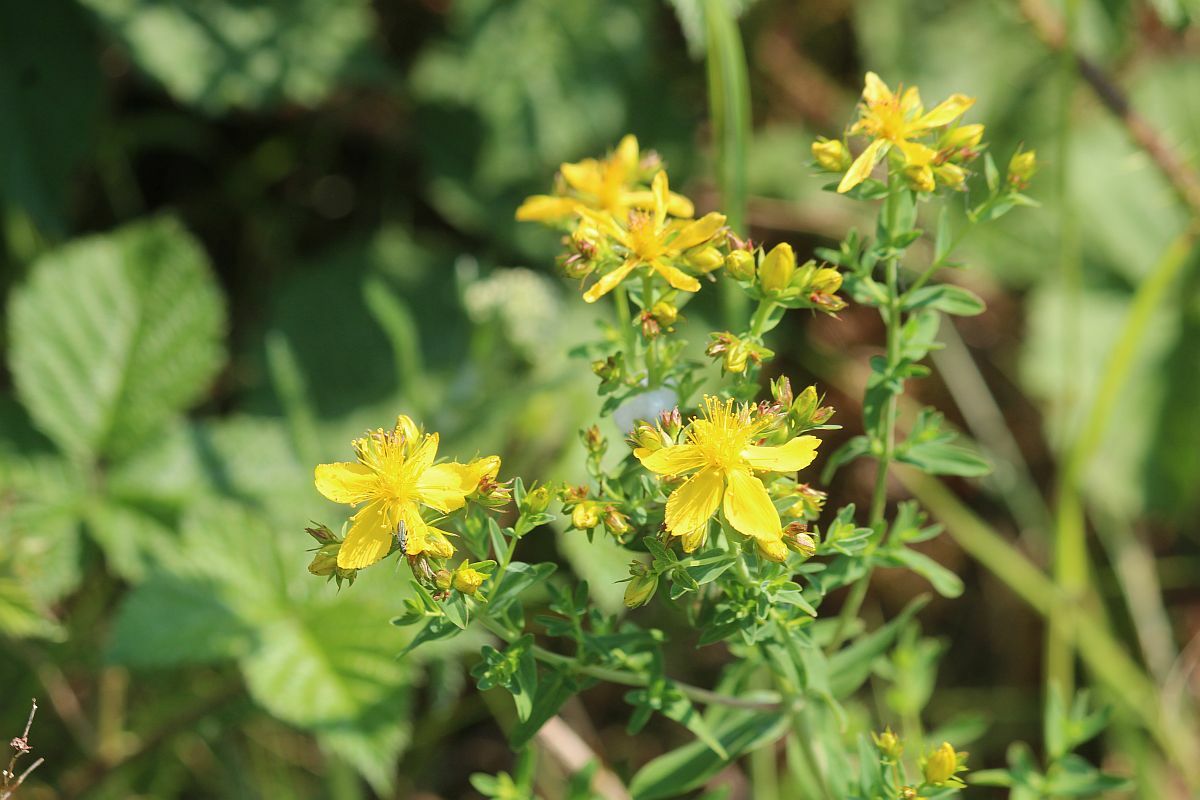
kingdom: Plantae
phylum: Tracheophyta
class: Magnoliopsida
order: Malpighiales
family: Hypericaceae
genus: Hypericum
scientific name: Hypericum perforatum
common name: Common st. johnswort
